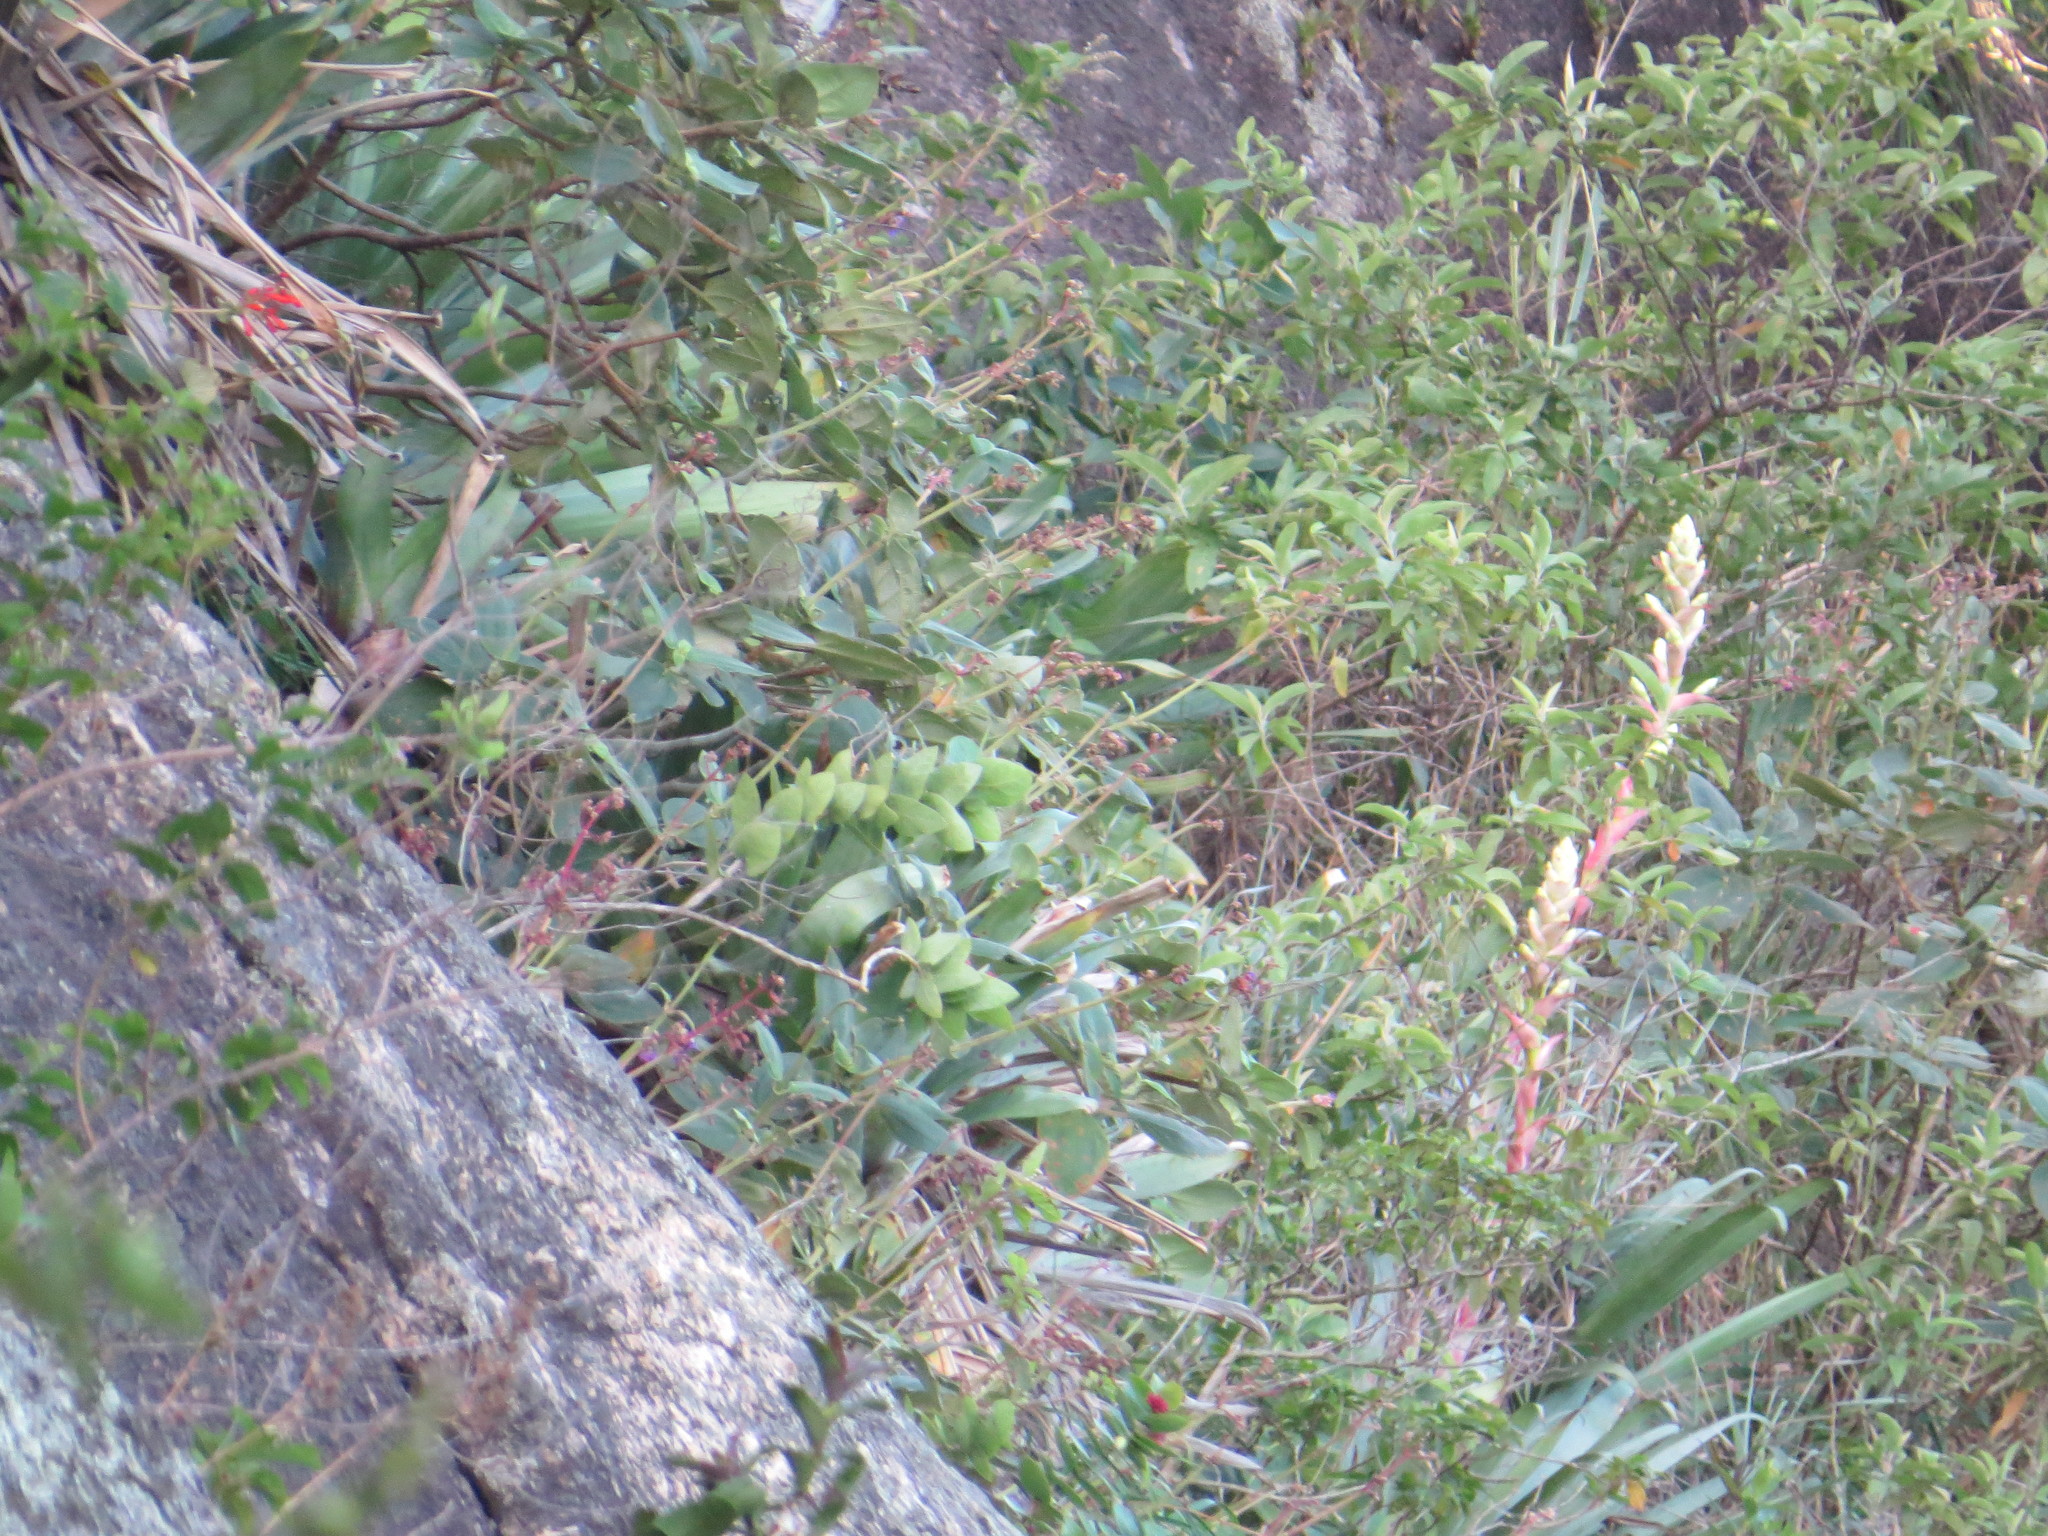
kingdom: Plantae
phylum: Tracheophyta
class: Liliopsida
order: Poales
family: Bromeliaceae
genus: Alcantarea
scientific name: Alcantarea glaziouana
